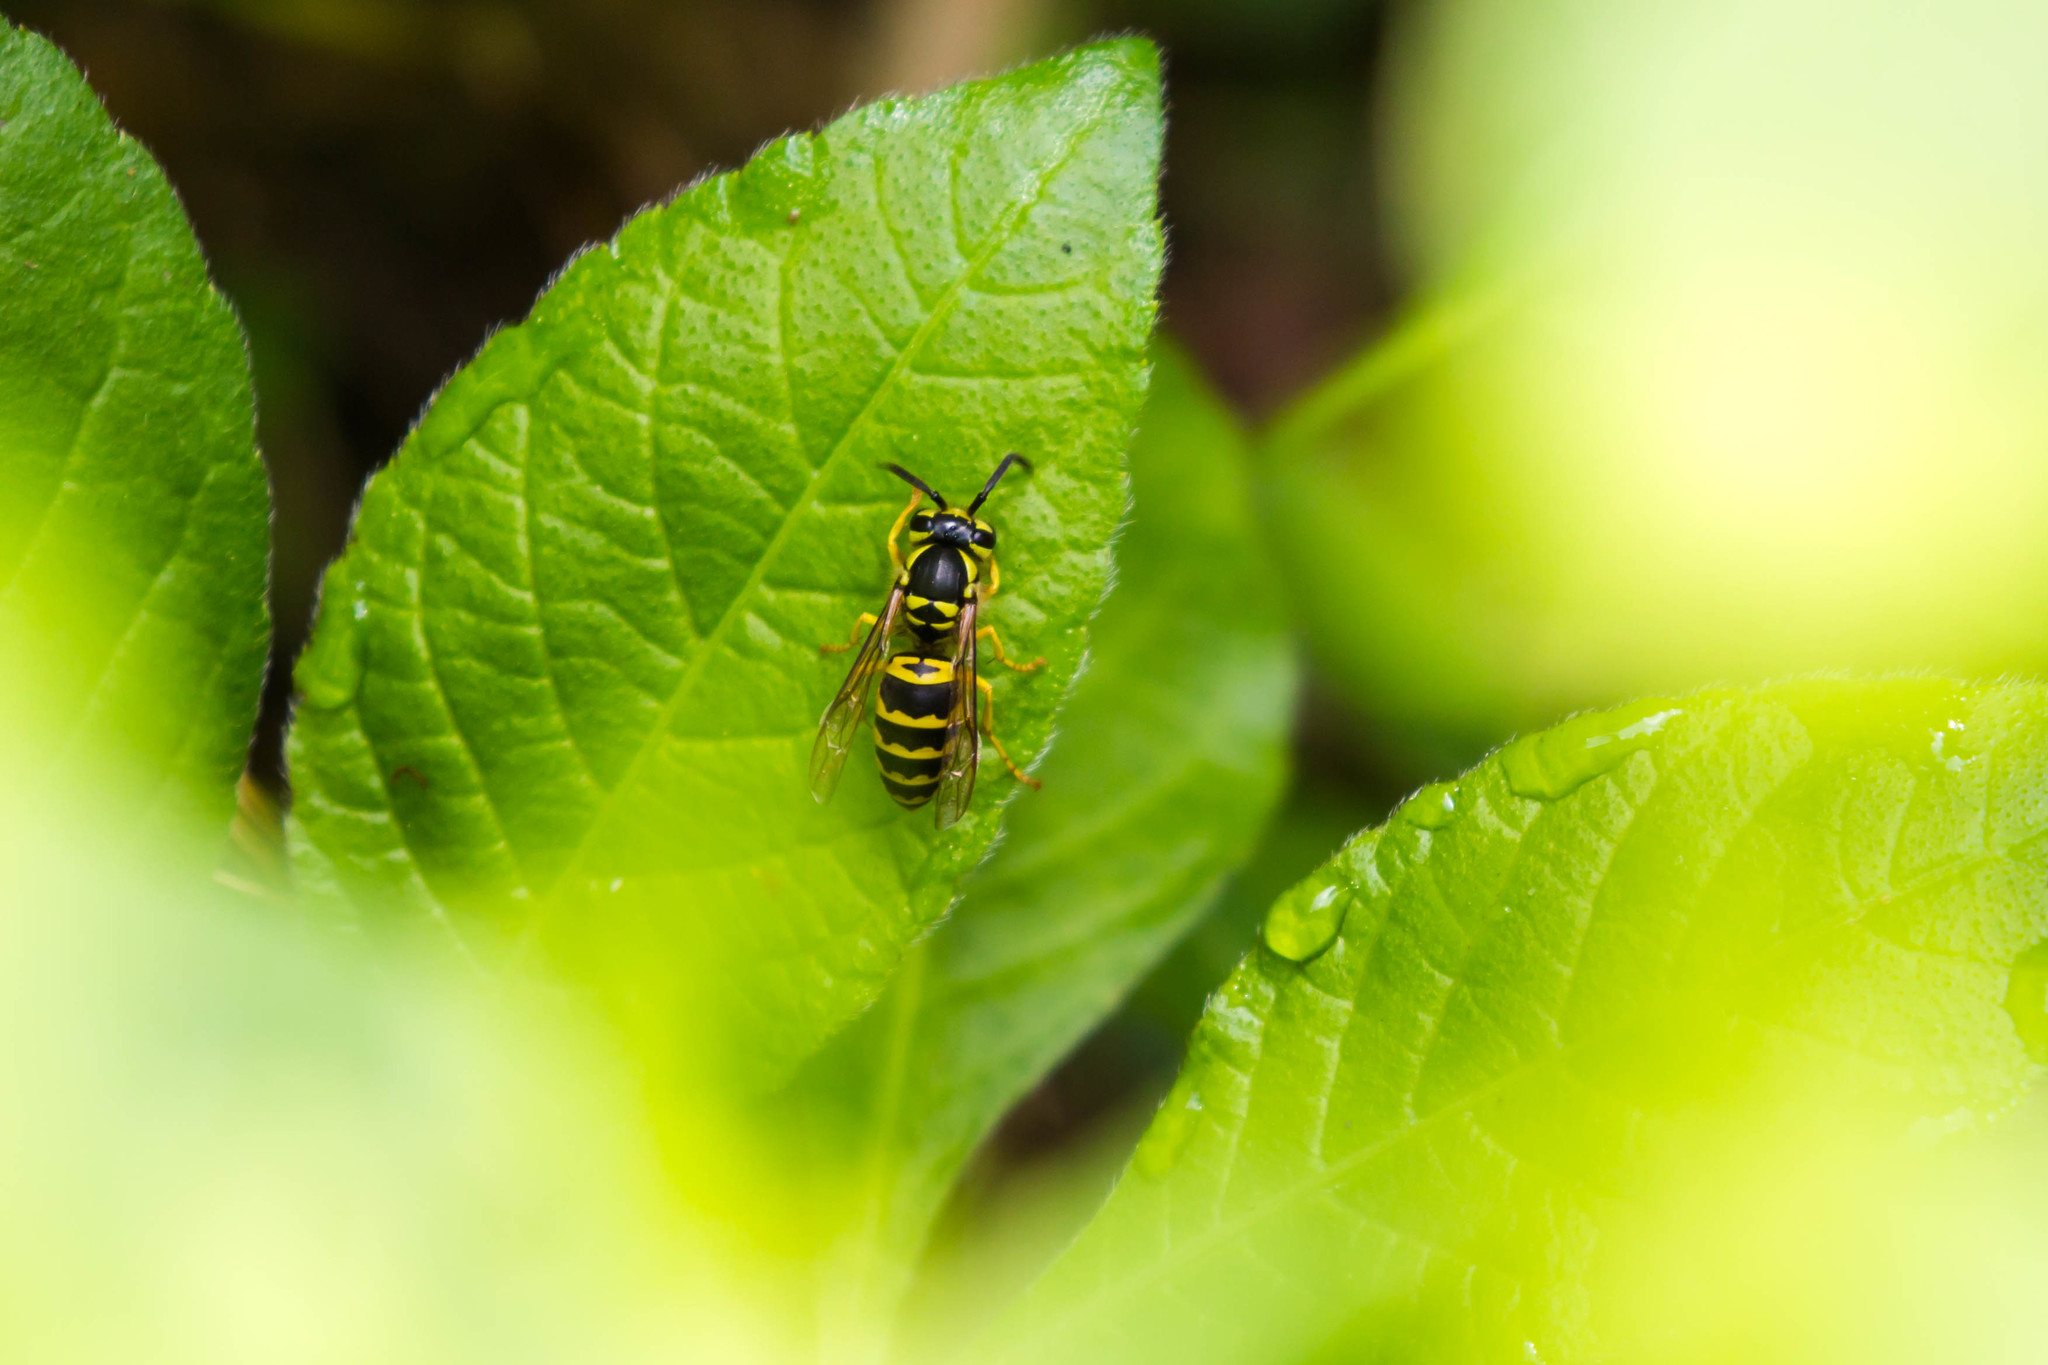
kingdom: Animalia
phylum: Arthropoda
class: Insecta
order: Hymenoptera
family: Vespidae
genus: Vespula
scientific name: Vespula maculifrons
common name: Eastern yellowjacket
